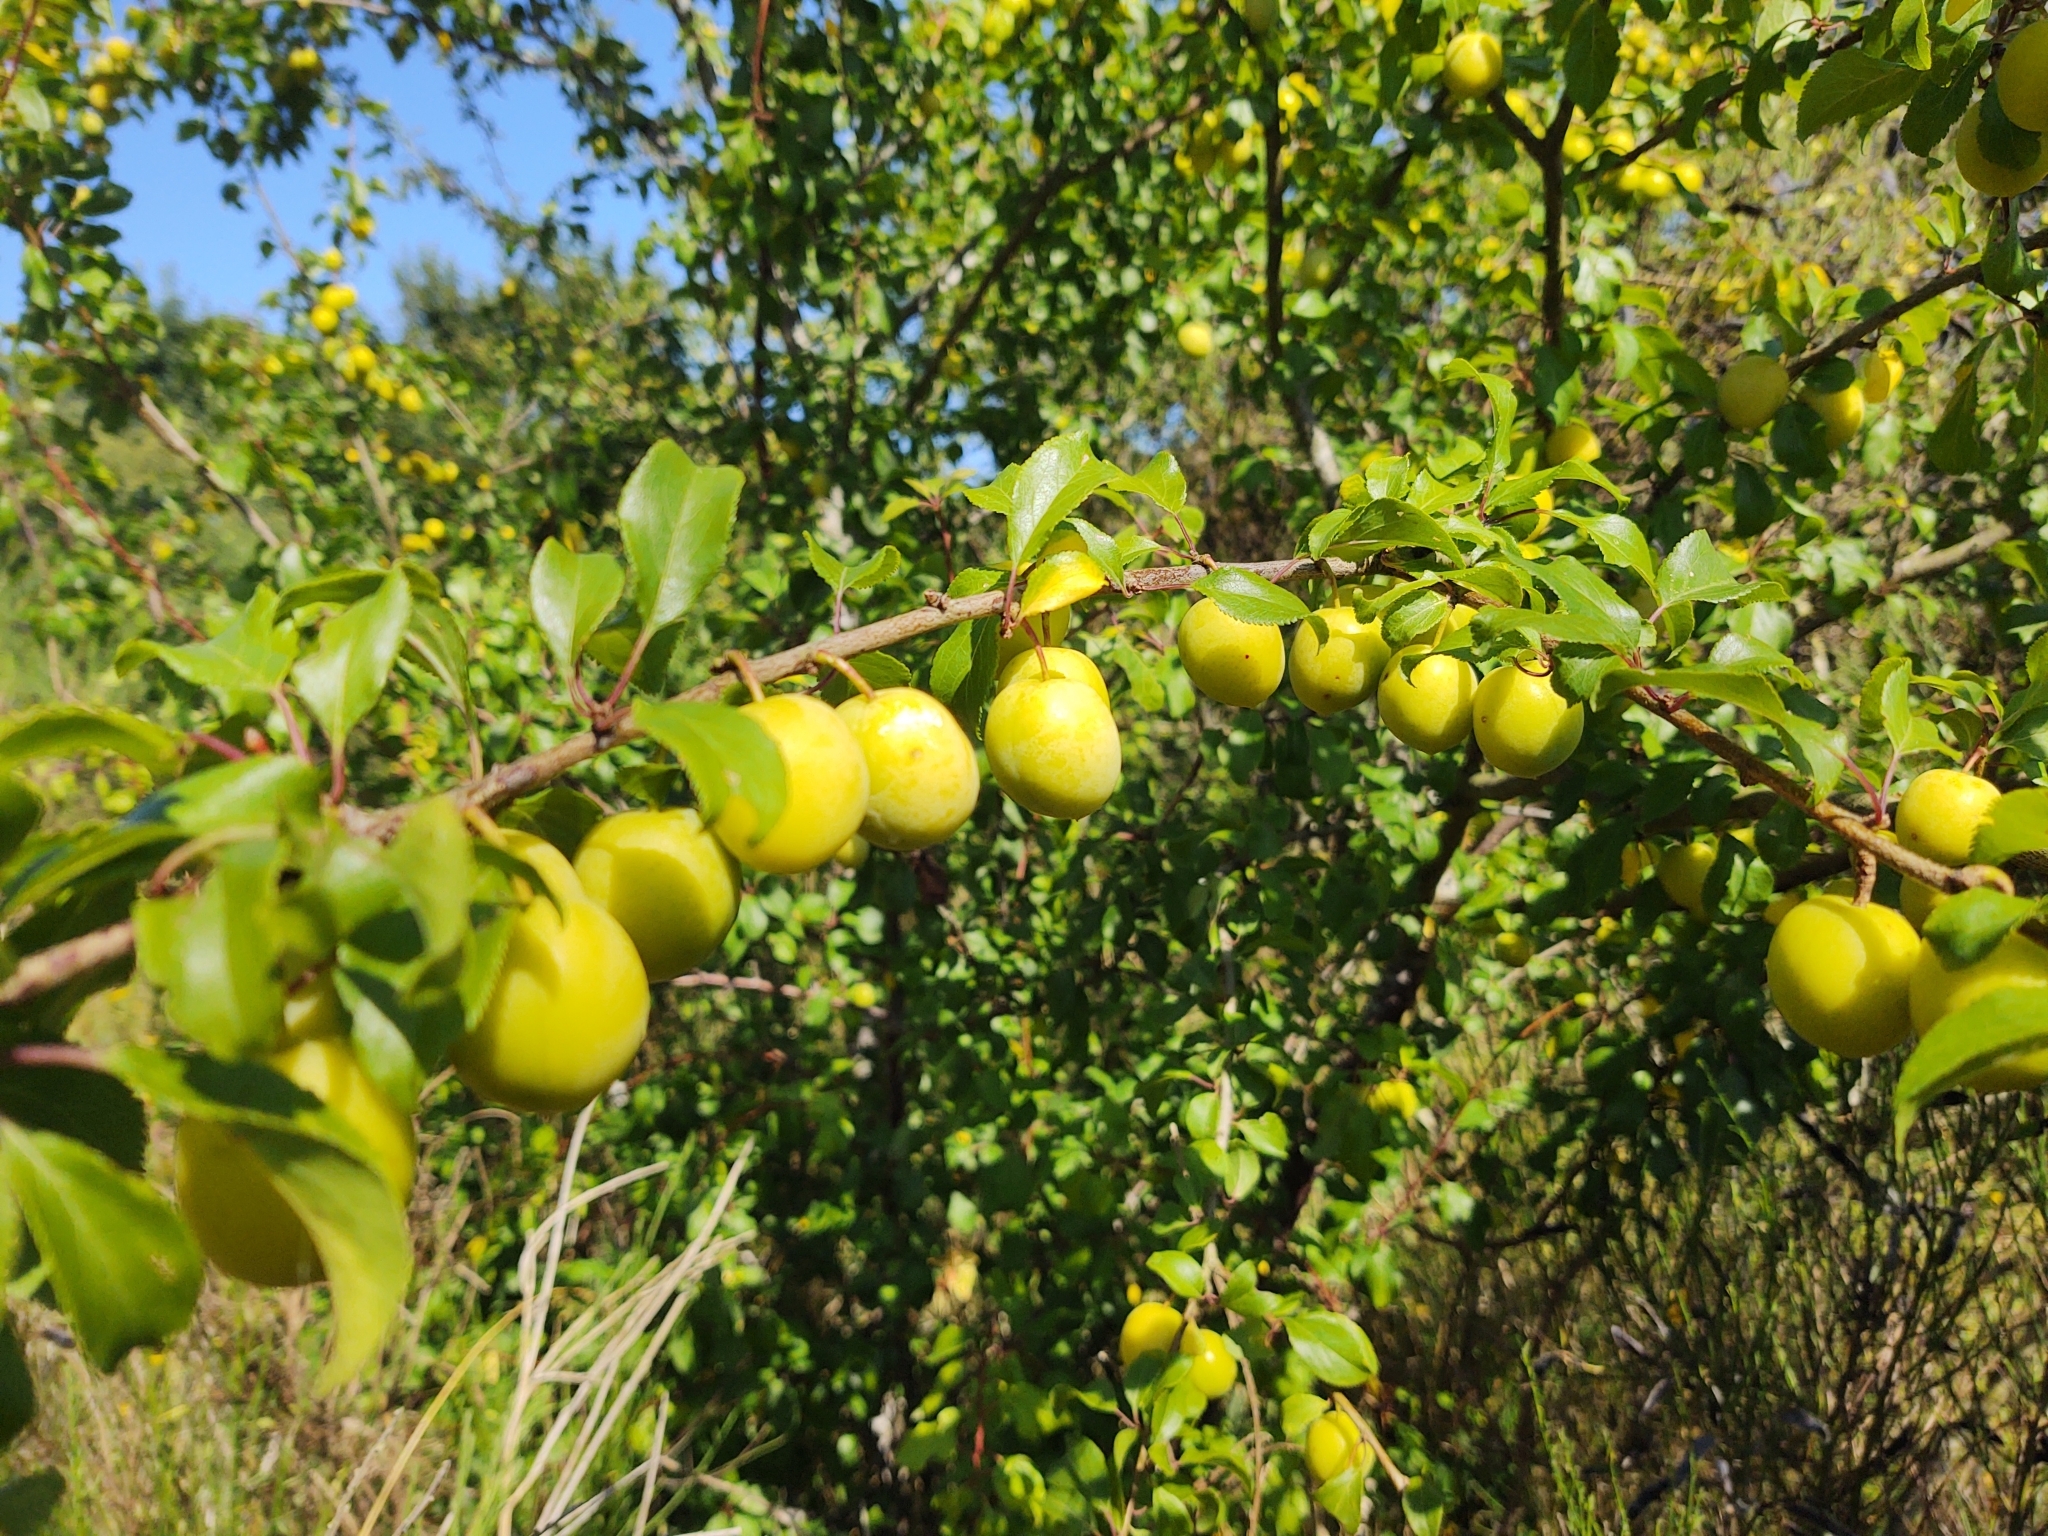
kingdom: Plantae
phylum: Tracheophyta
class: Magnoliopsida
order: Rosales
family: Rosaceae
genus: Prunus
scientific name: Prunus cerasifera
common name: Cherry plum
